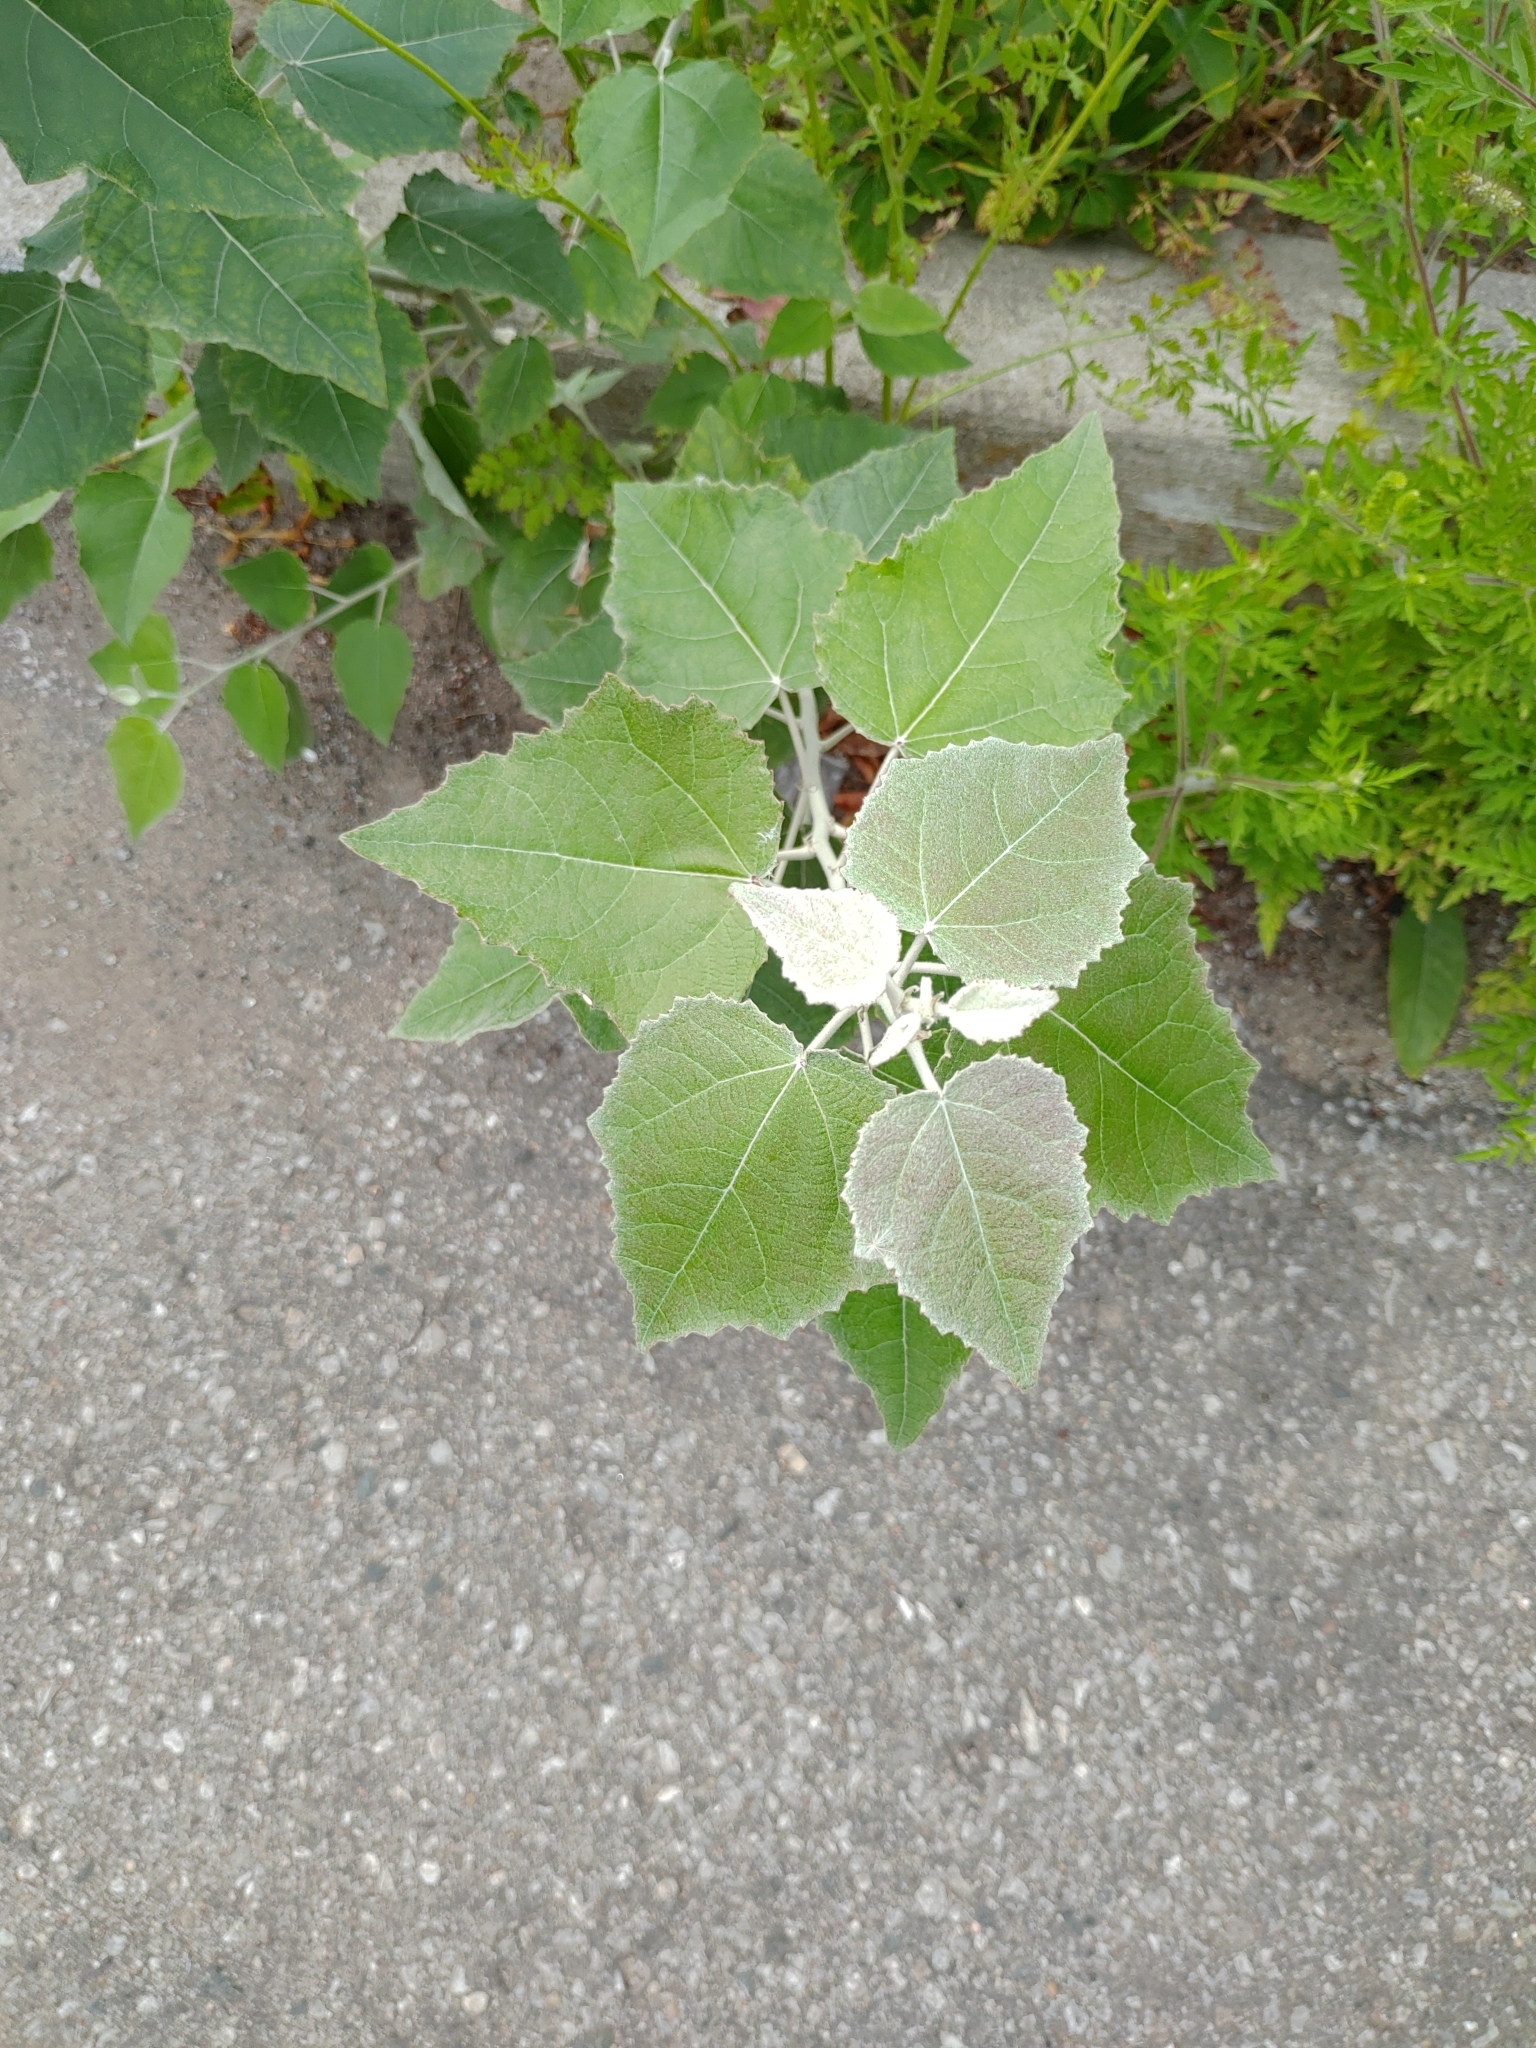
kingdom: Plantae
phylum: Tracheophyta
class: Magnoliopsida
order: Malpighiales
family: Salicaceae
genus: Populus
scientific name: Populus alba
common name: White poplar
